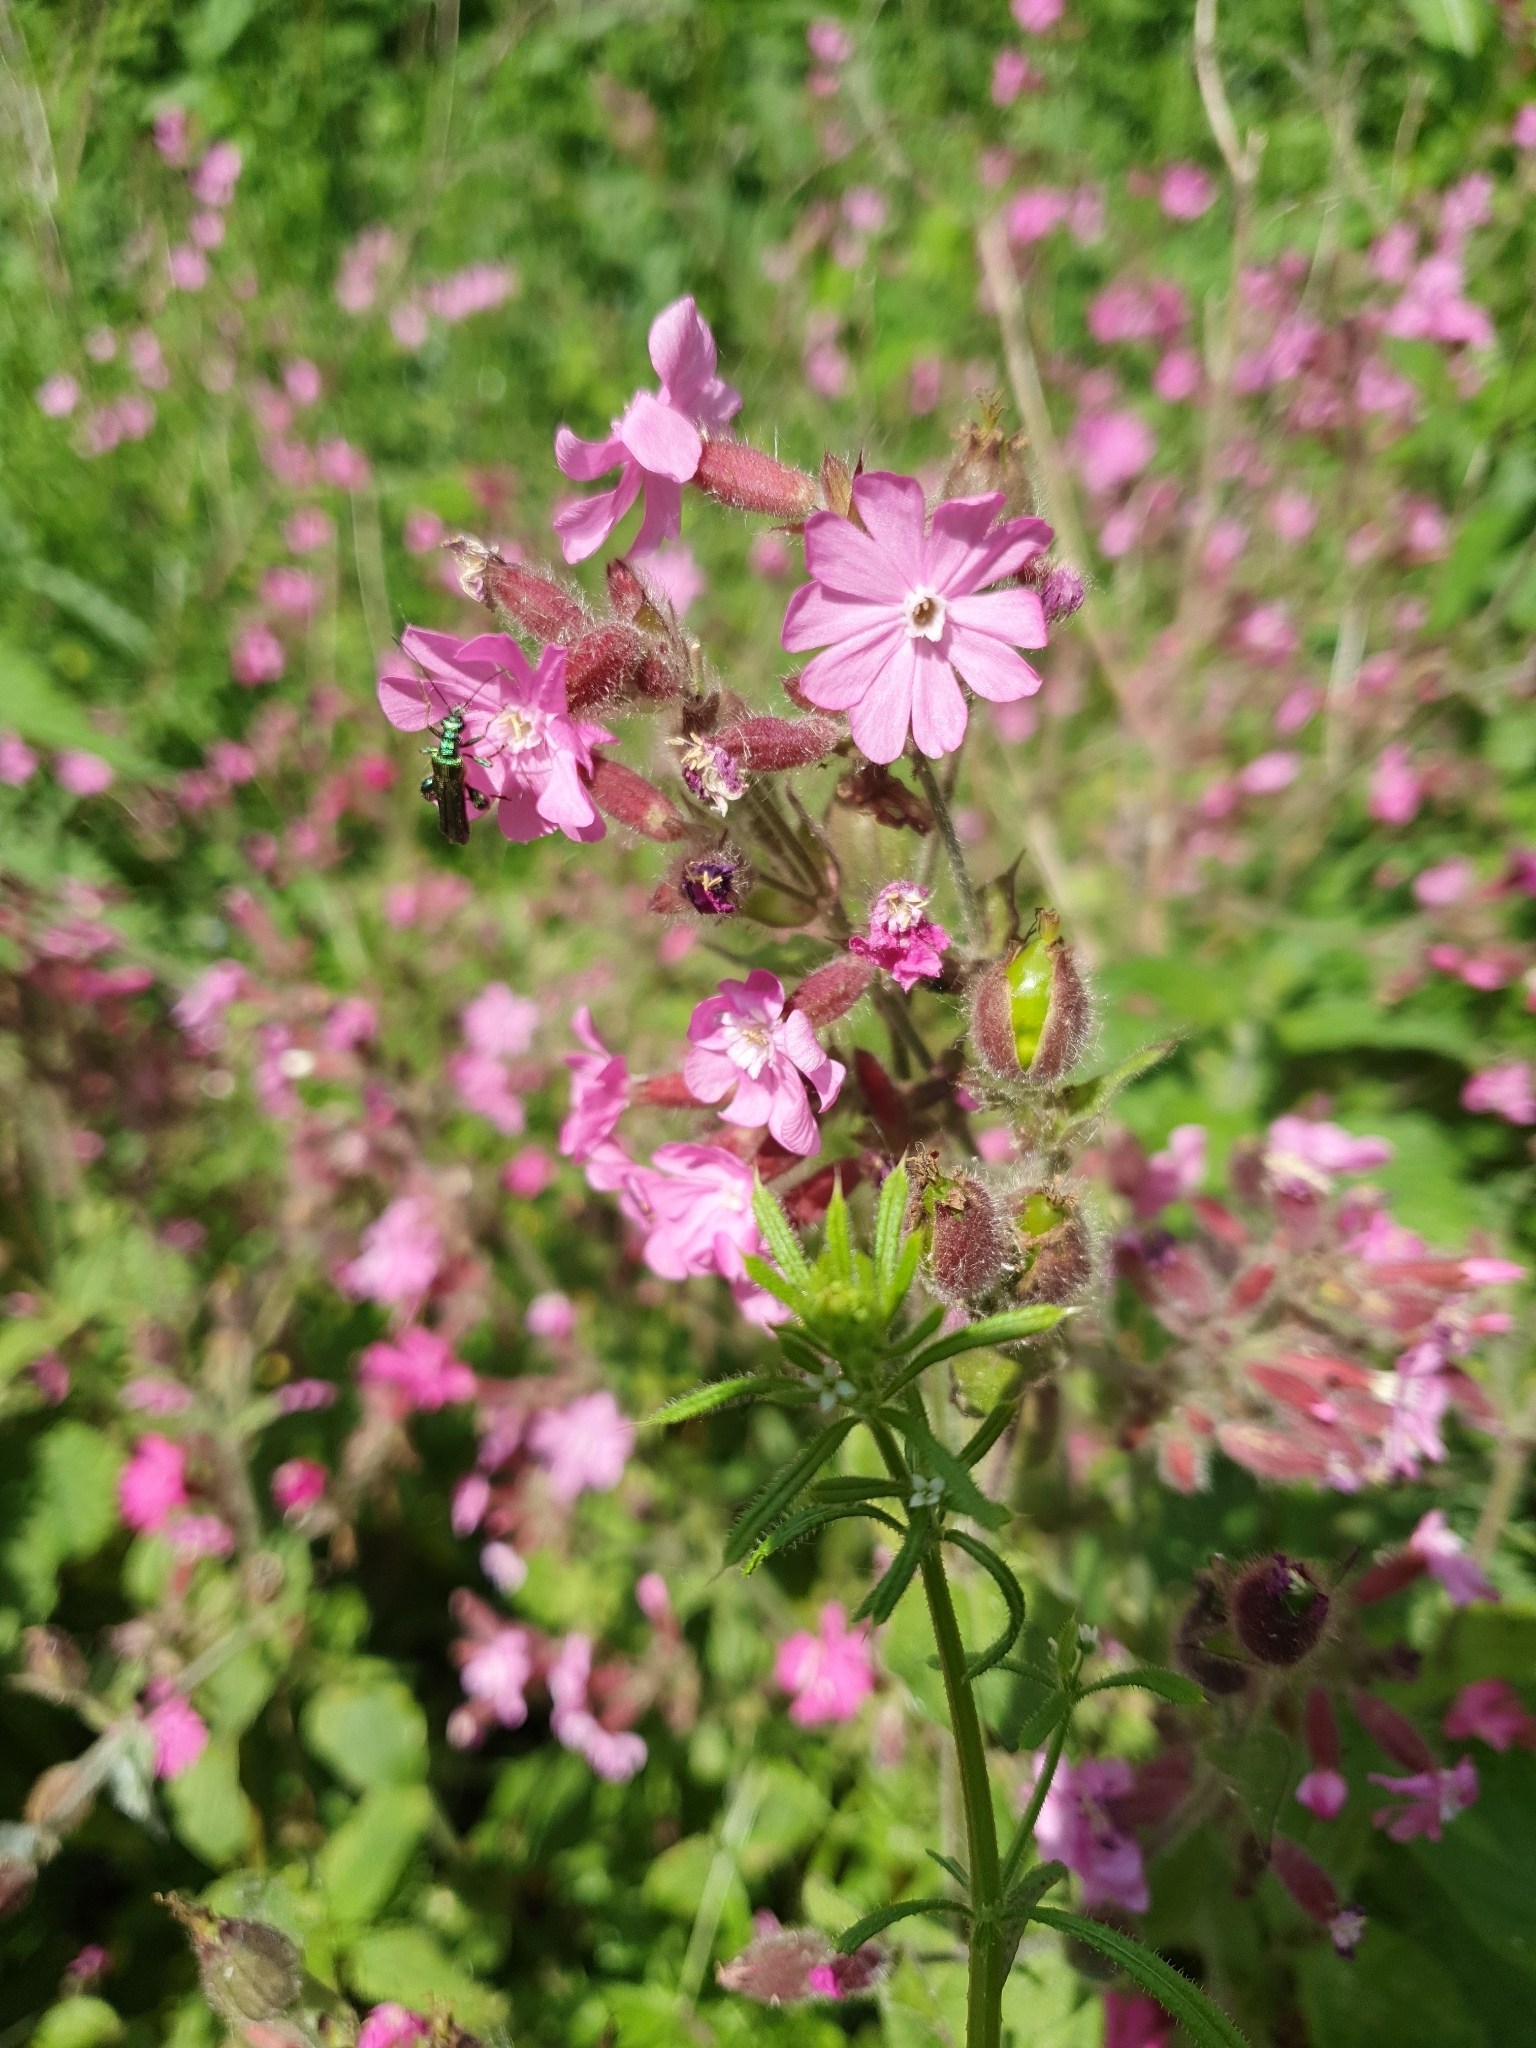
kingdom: Plantae
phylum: Tracheophyta
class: Magnoliopsida
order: Caryophyllales
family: Caryophyllaceae
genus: Silene
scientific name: Silene dioica
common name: Red campion
